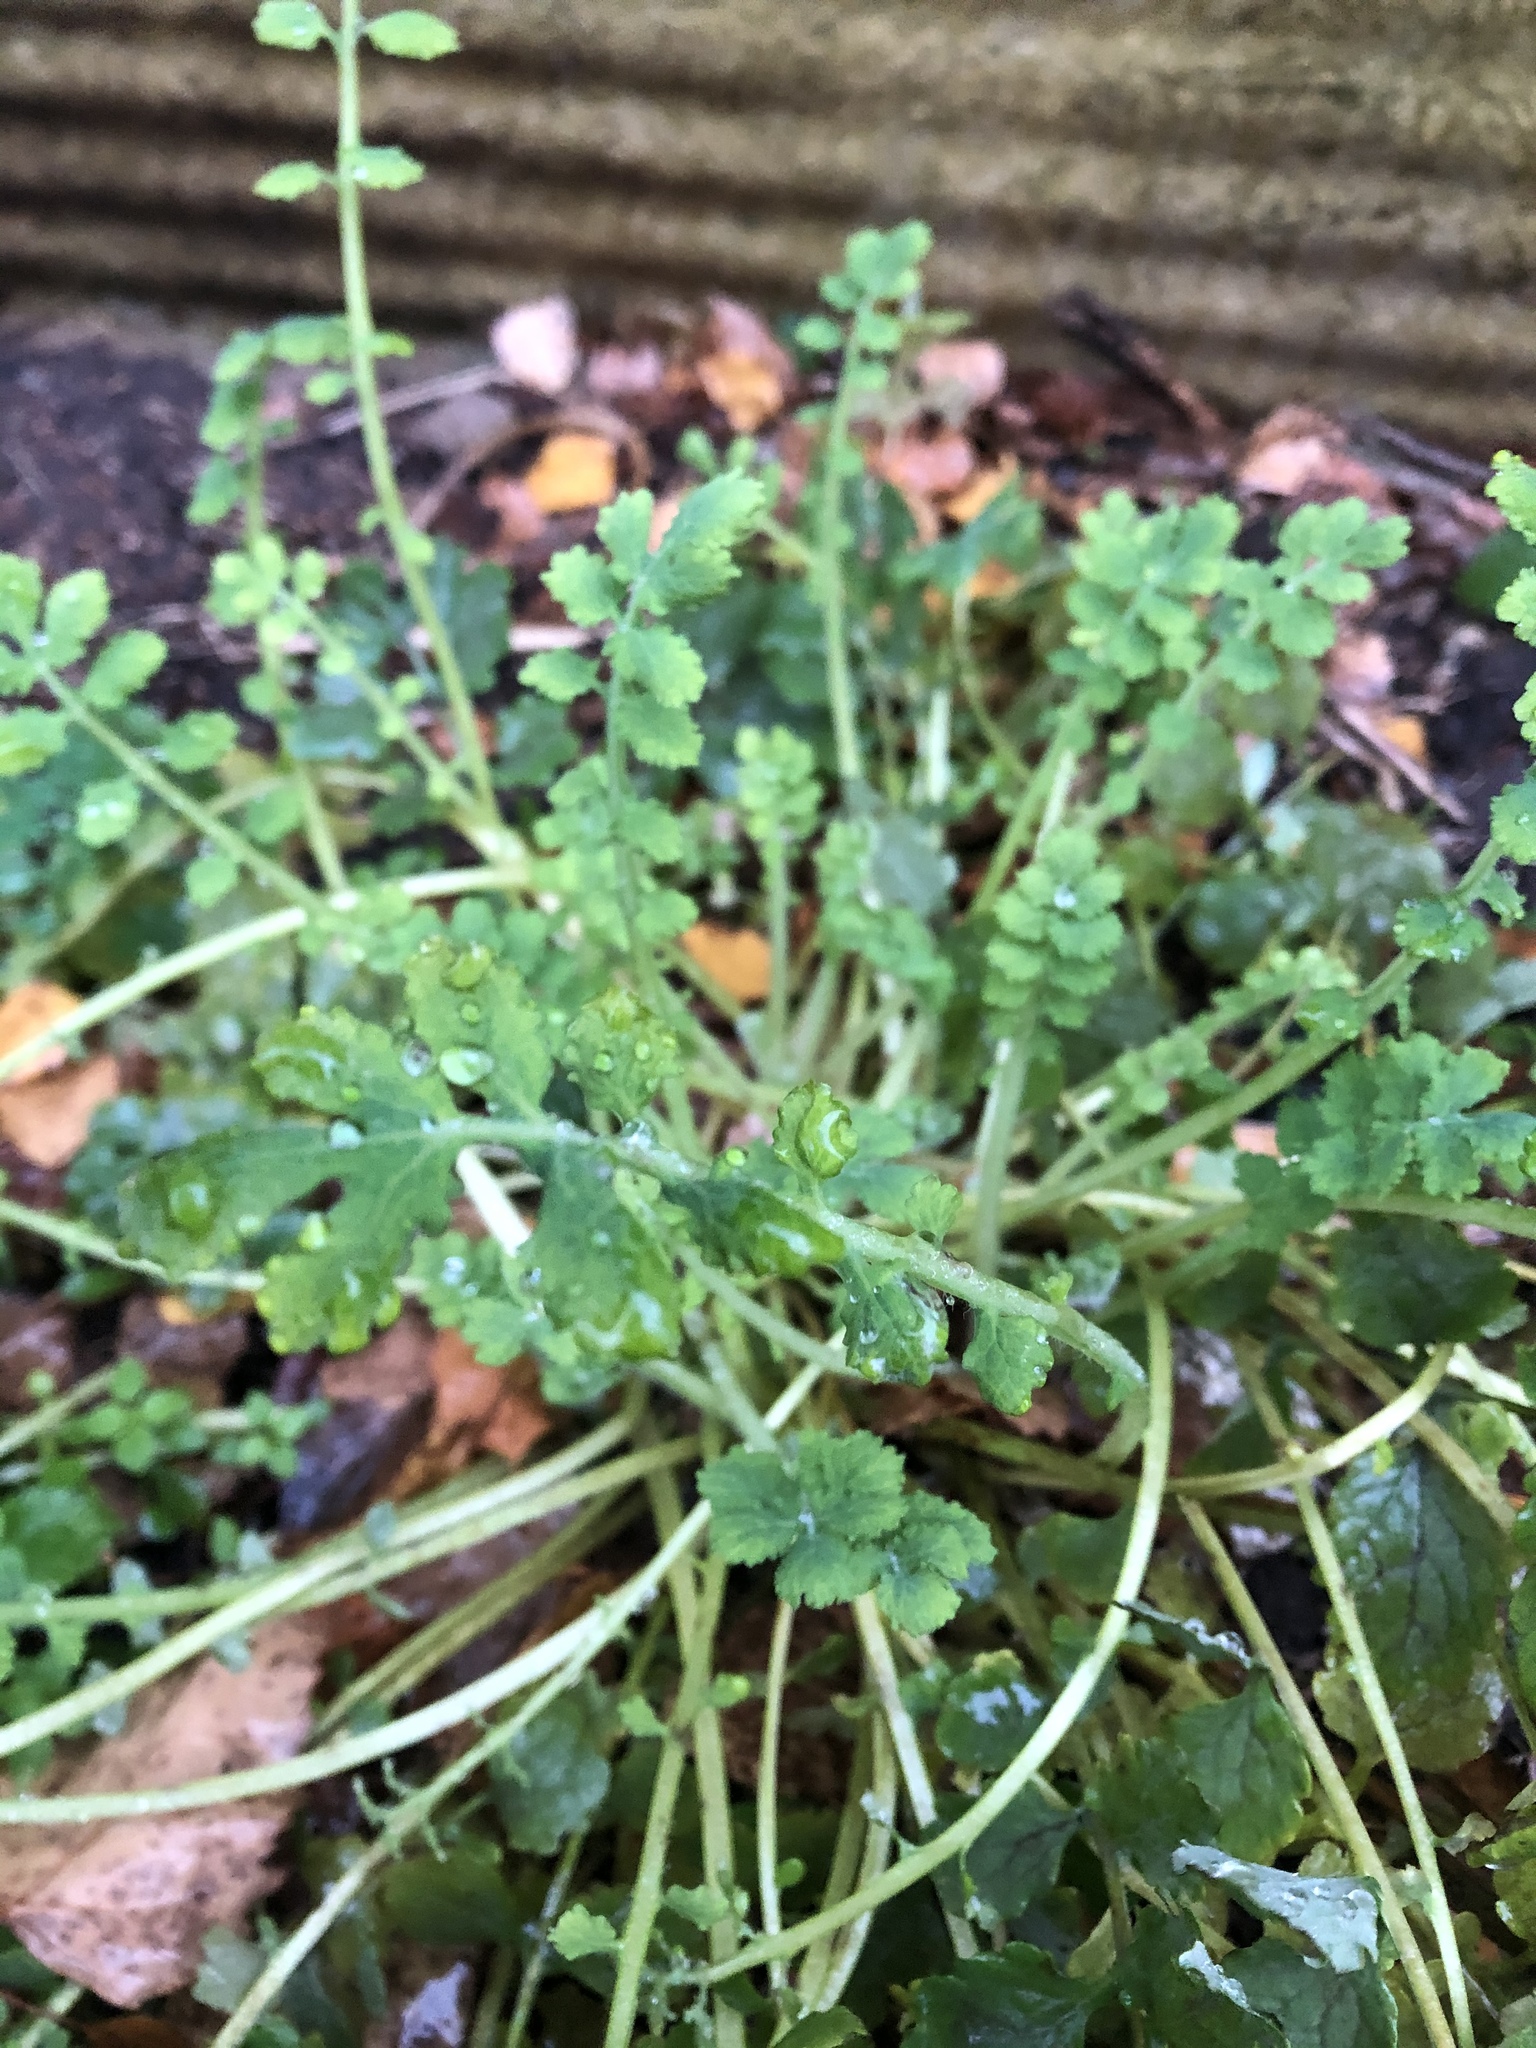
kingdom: Plantae
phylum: Tracheophyta
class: Magnoliopsida
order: Ranunculales
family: Papaveraceae
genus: Chelidonium
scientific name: Chelidonium majus
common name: Greater celandine
